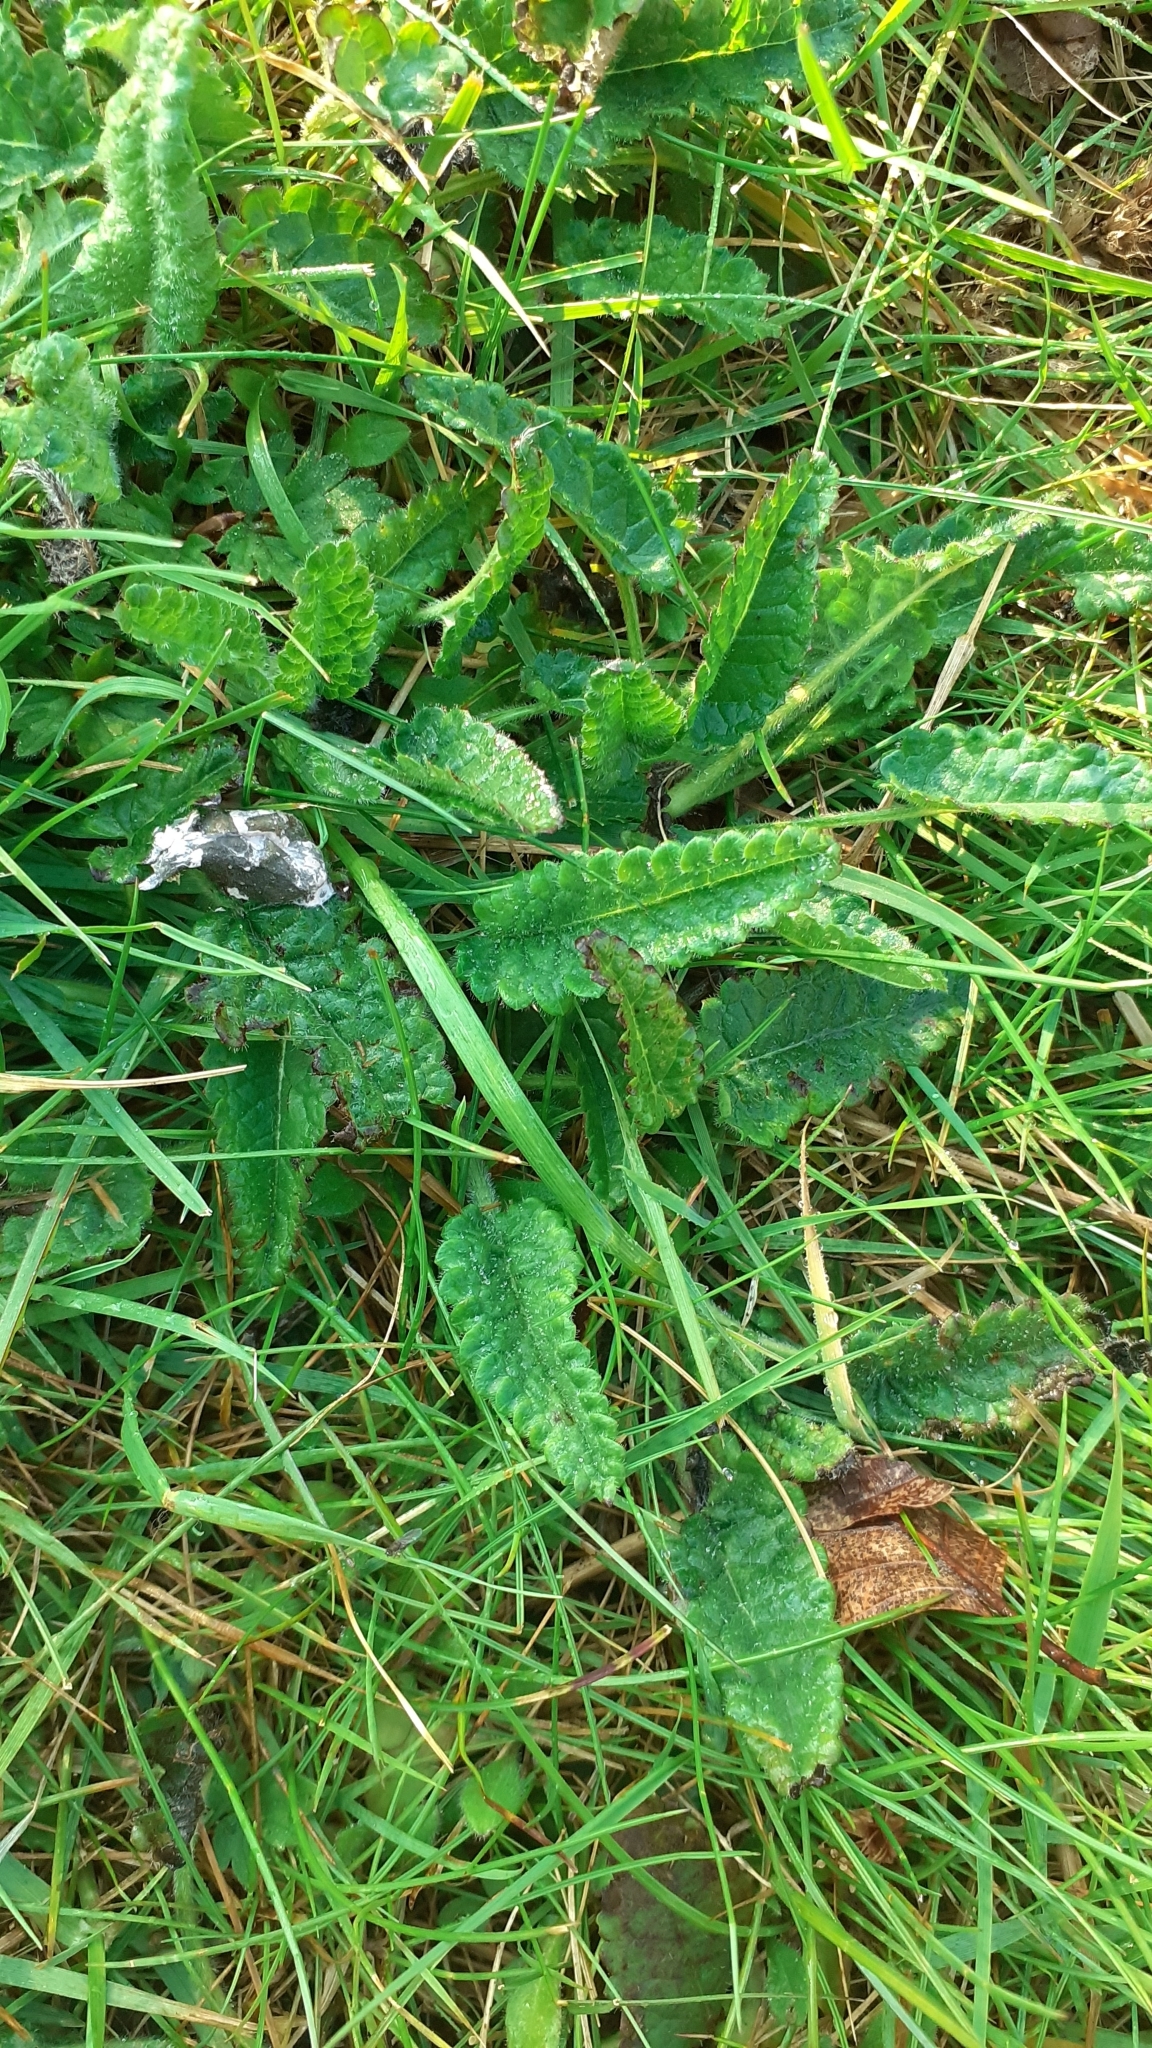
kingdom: Plantae
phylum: Tracheophyta
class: Magnoliopsida
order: Lamiales
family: Lamiaceae
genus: Betonica
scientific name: Betonica officinalis
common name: Bishop's-wort
